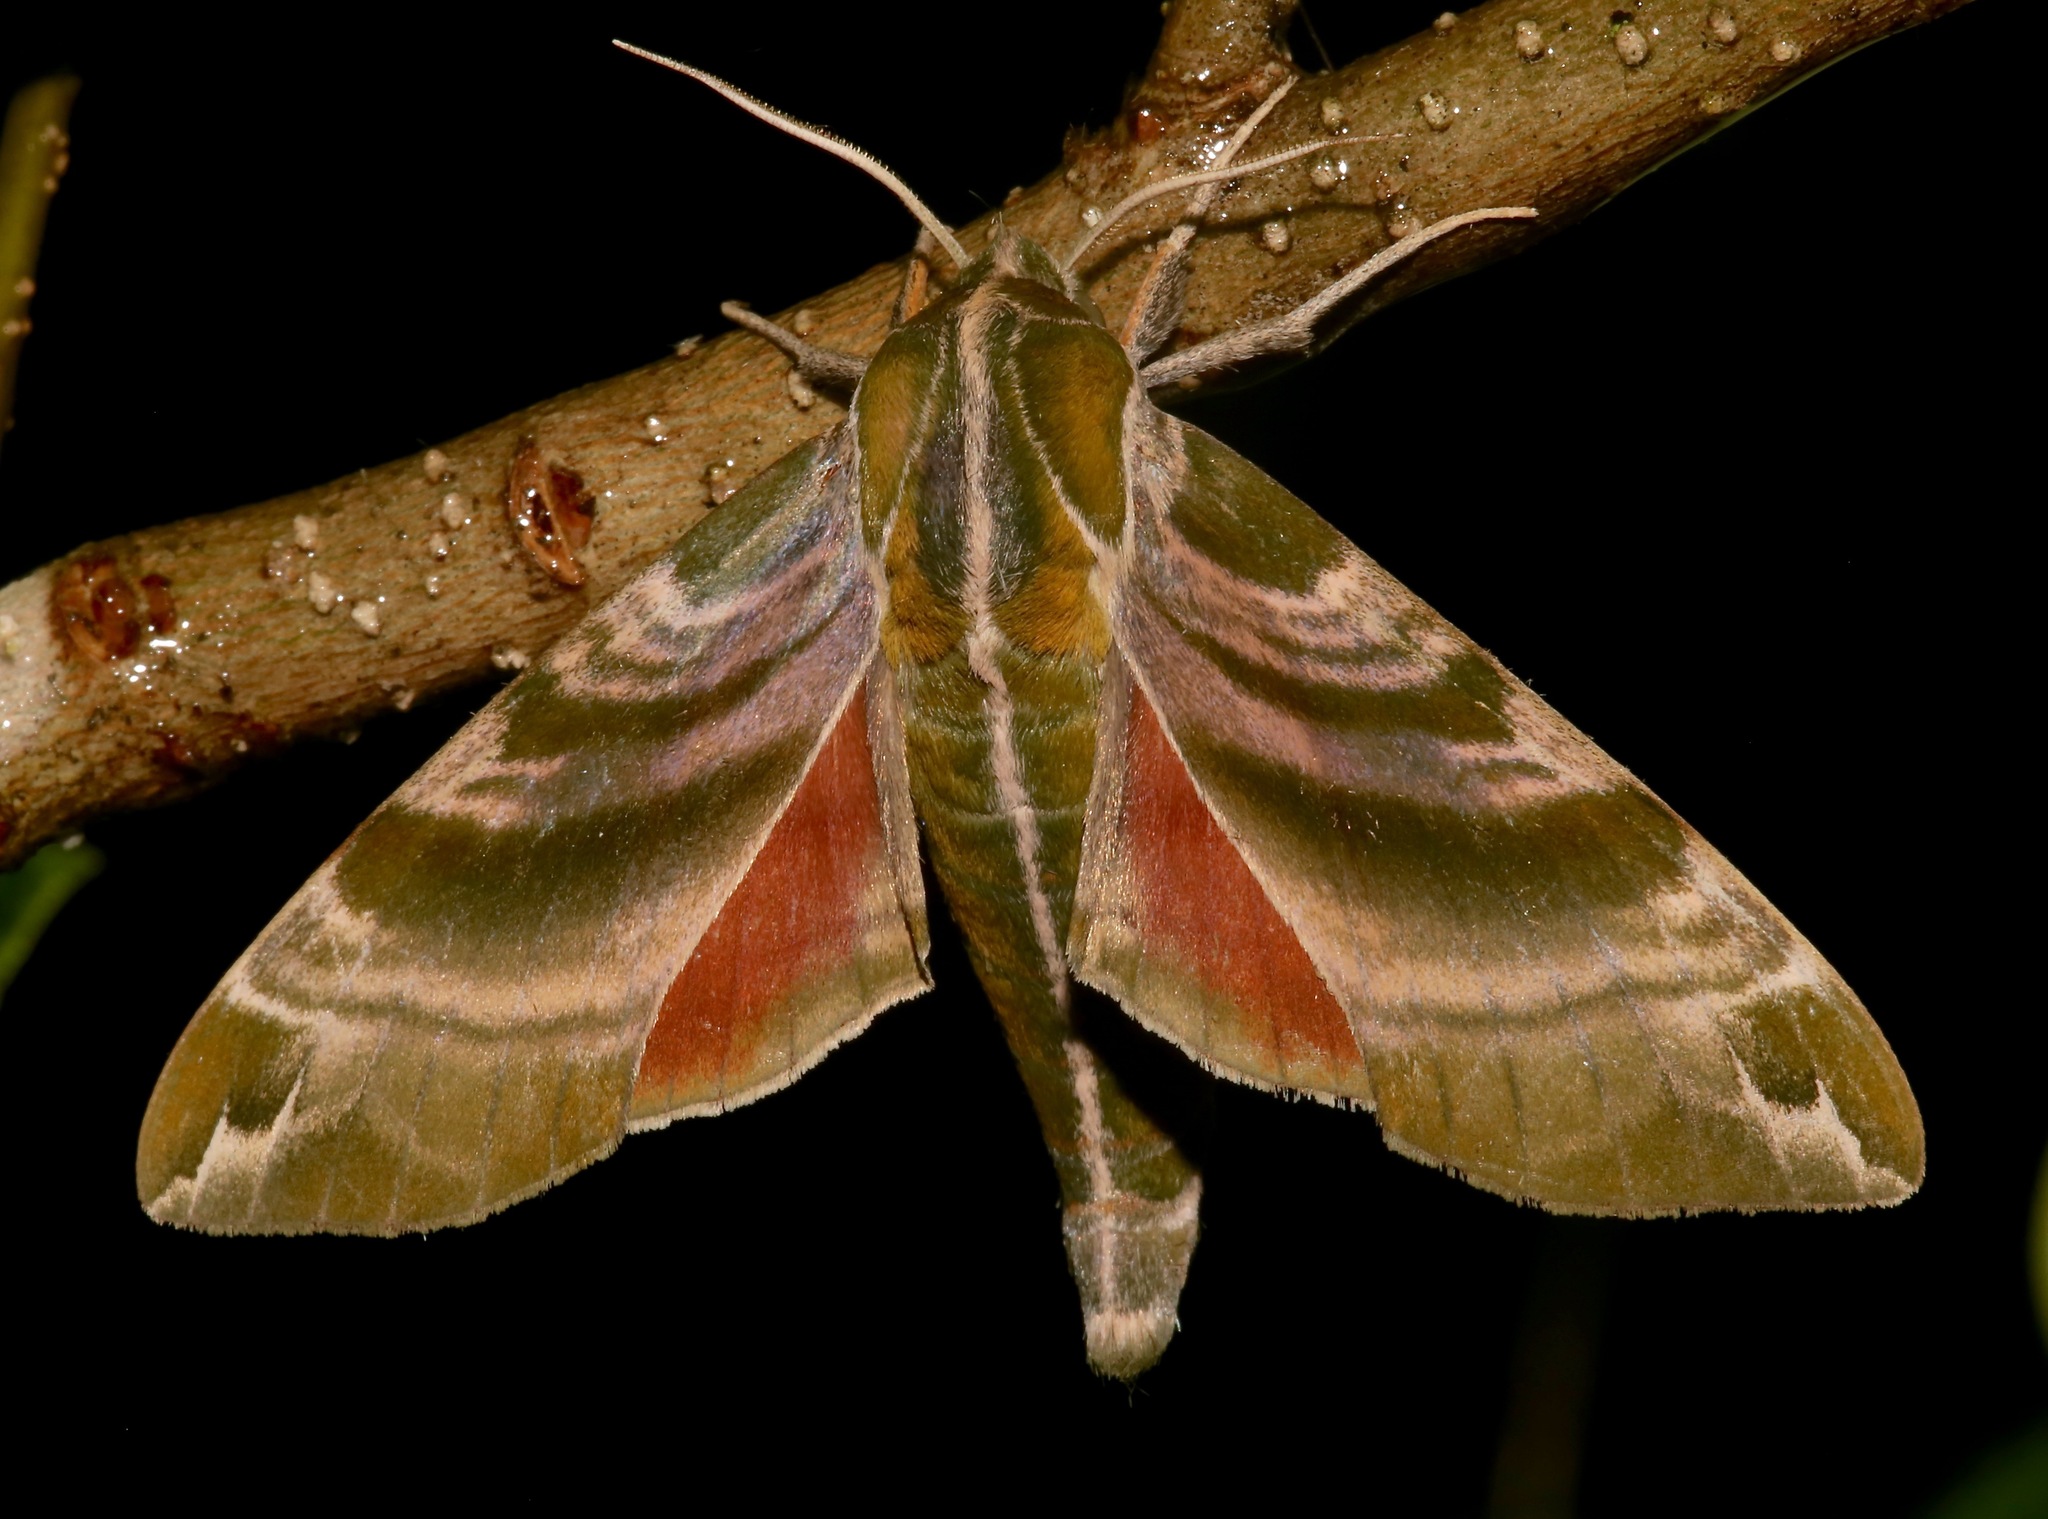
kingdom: Animalia
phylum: Arthropoda
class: Insecta
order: Lepidoptera
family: Sphingidae
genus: Darapsa
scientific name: Darapsa versicolor
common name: Hydrangea sphinx
